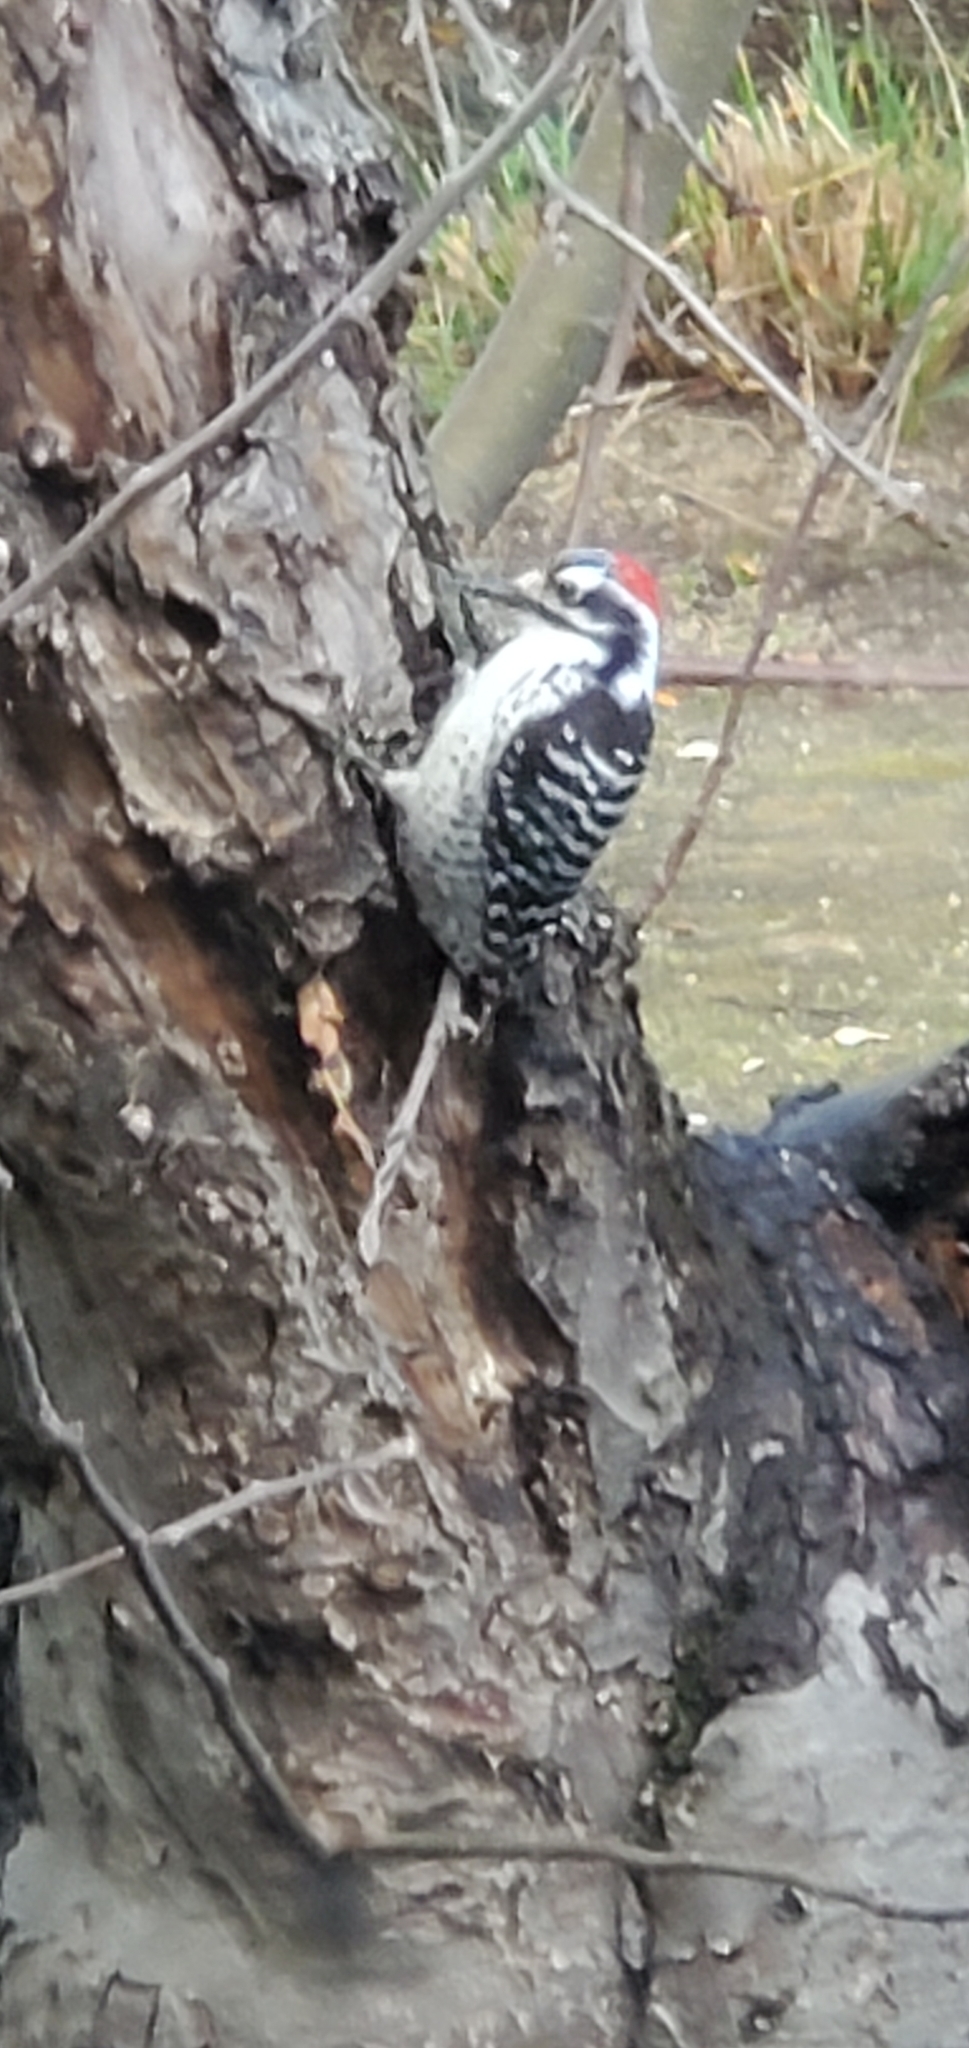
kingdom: Animalia
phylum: Chordata
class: Aves
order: Piciformes
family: Picidae
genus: Dryobates
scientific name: Dryobates nuttallii
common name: Nuttall's woodpecker
